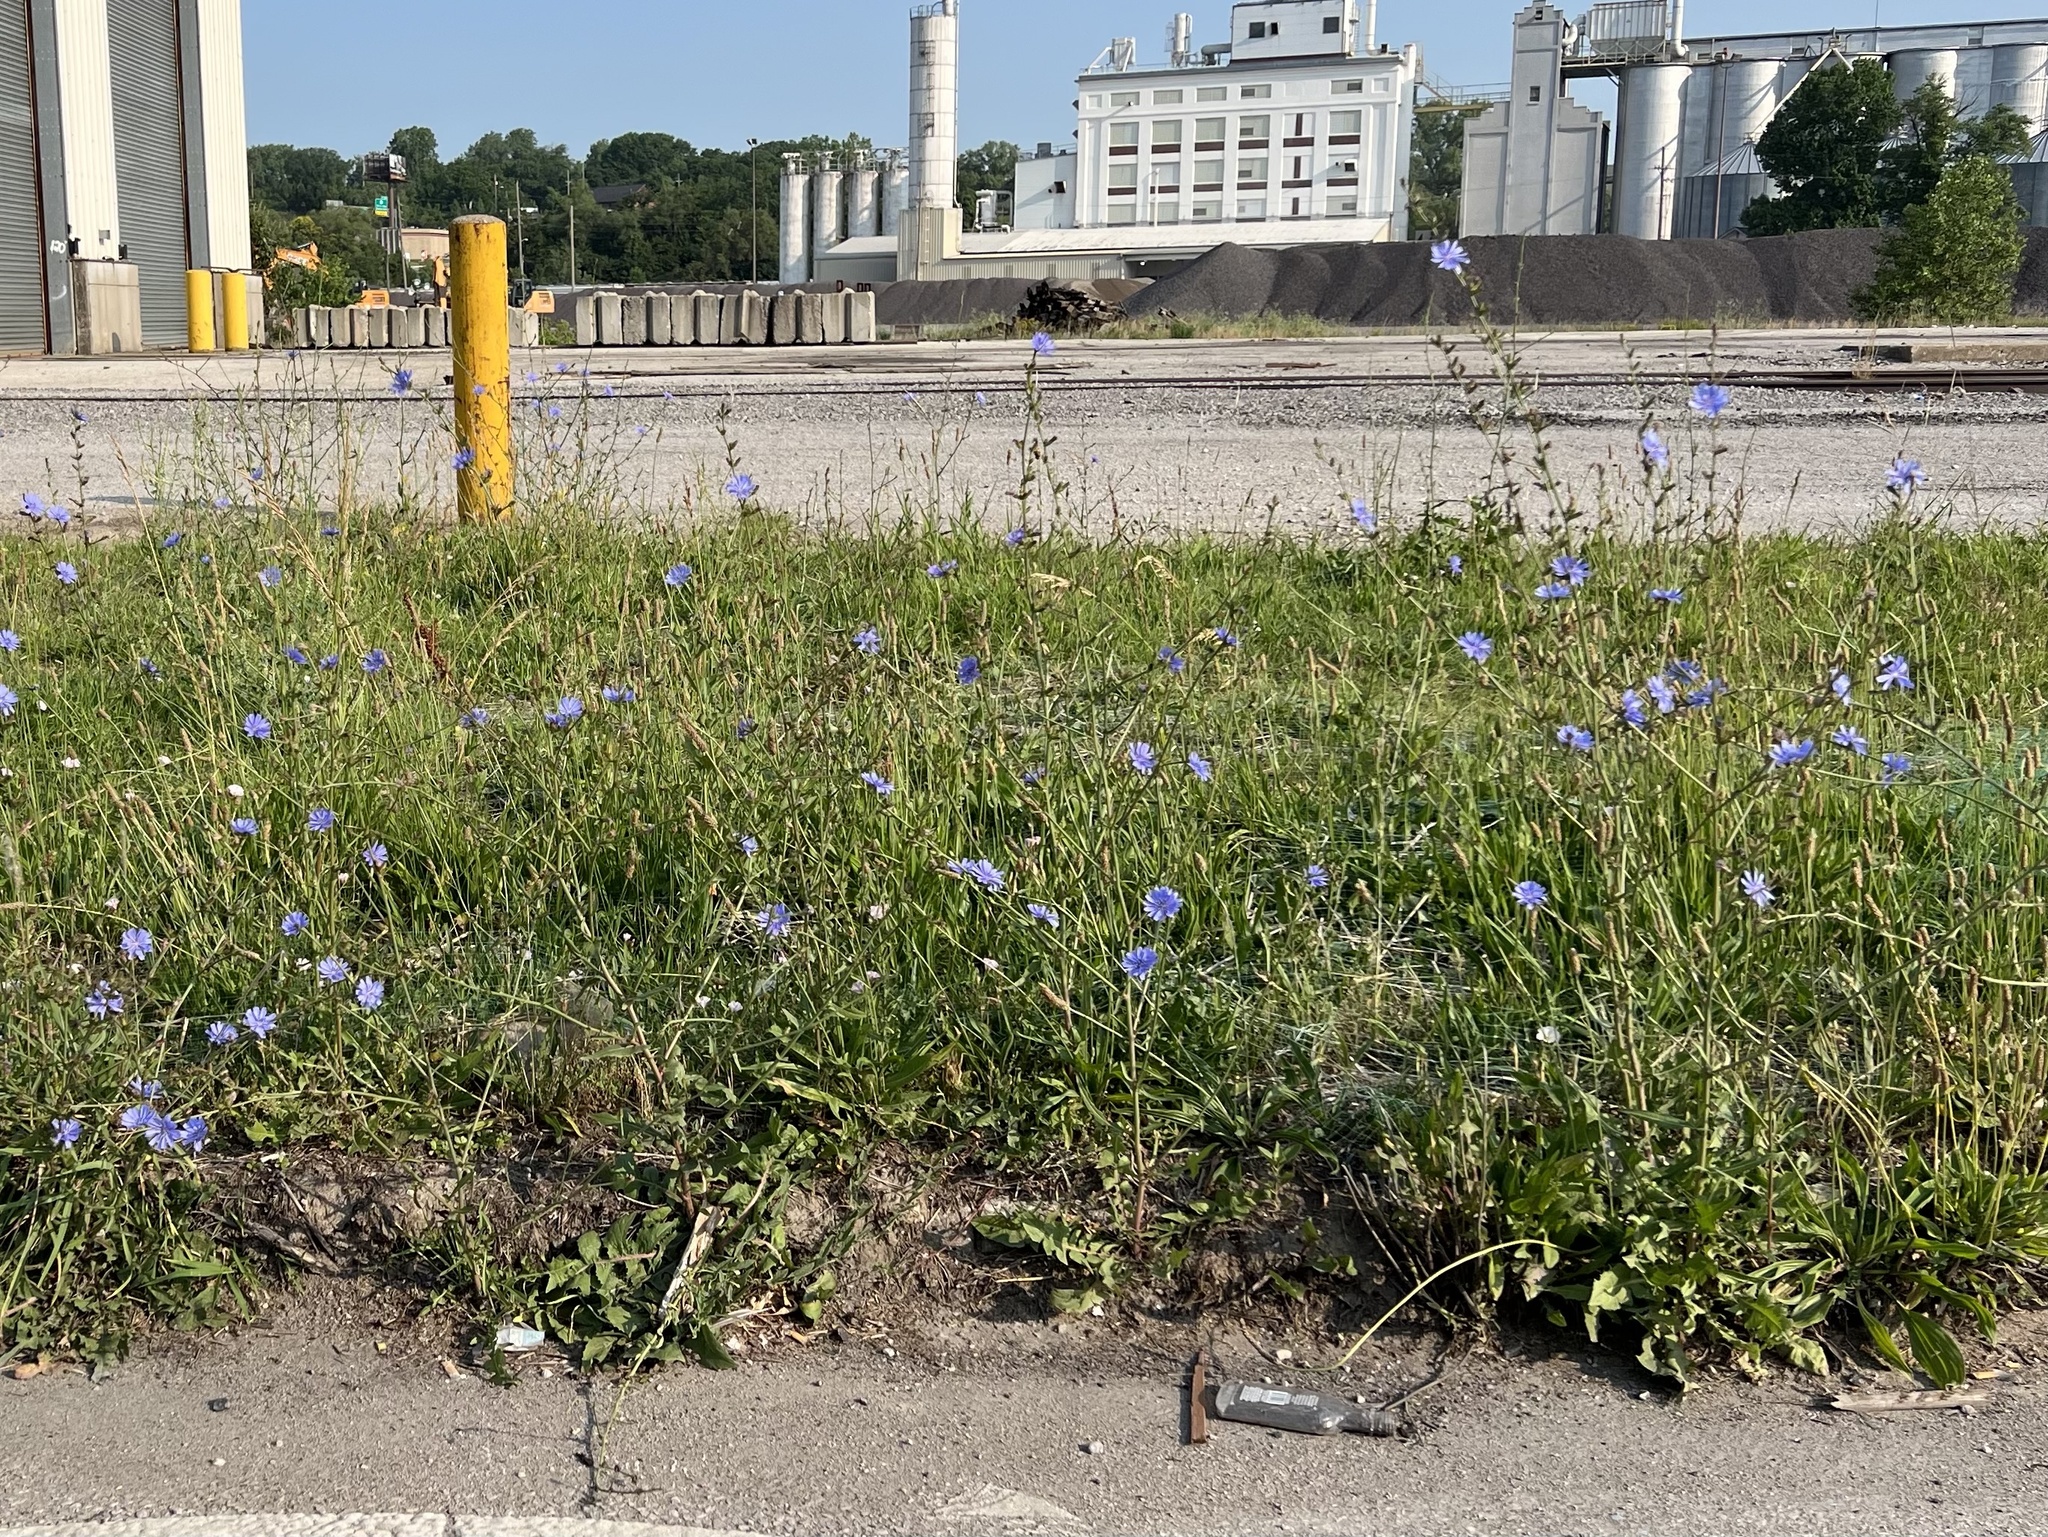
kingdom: Plantae
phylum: Tracheophyta
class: Magnoliopsida
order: Asterales
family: Asteraceae
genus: Cichorium
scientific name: Cichorium intybus
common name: Chicory
